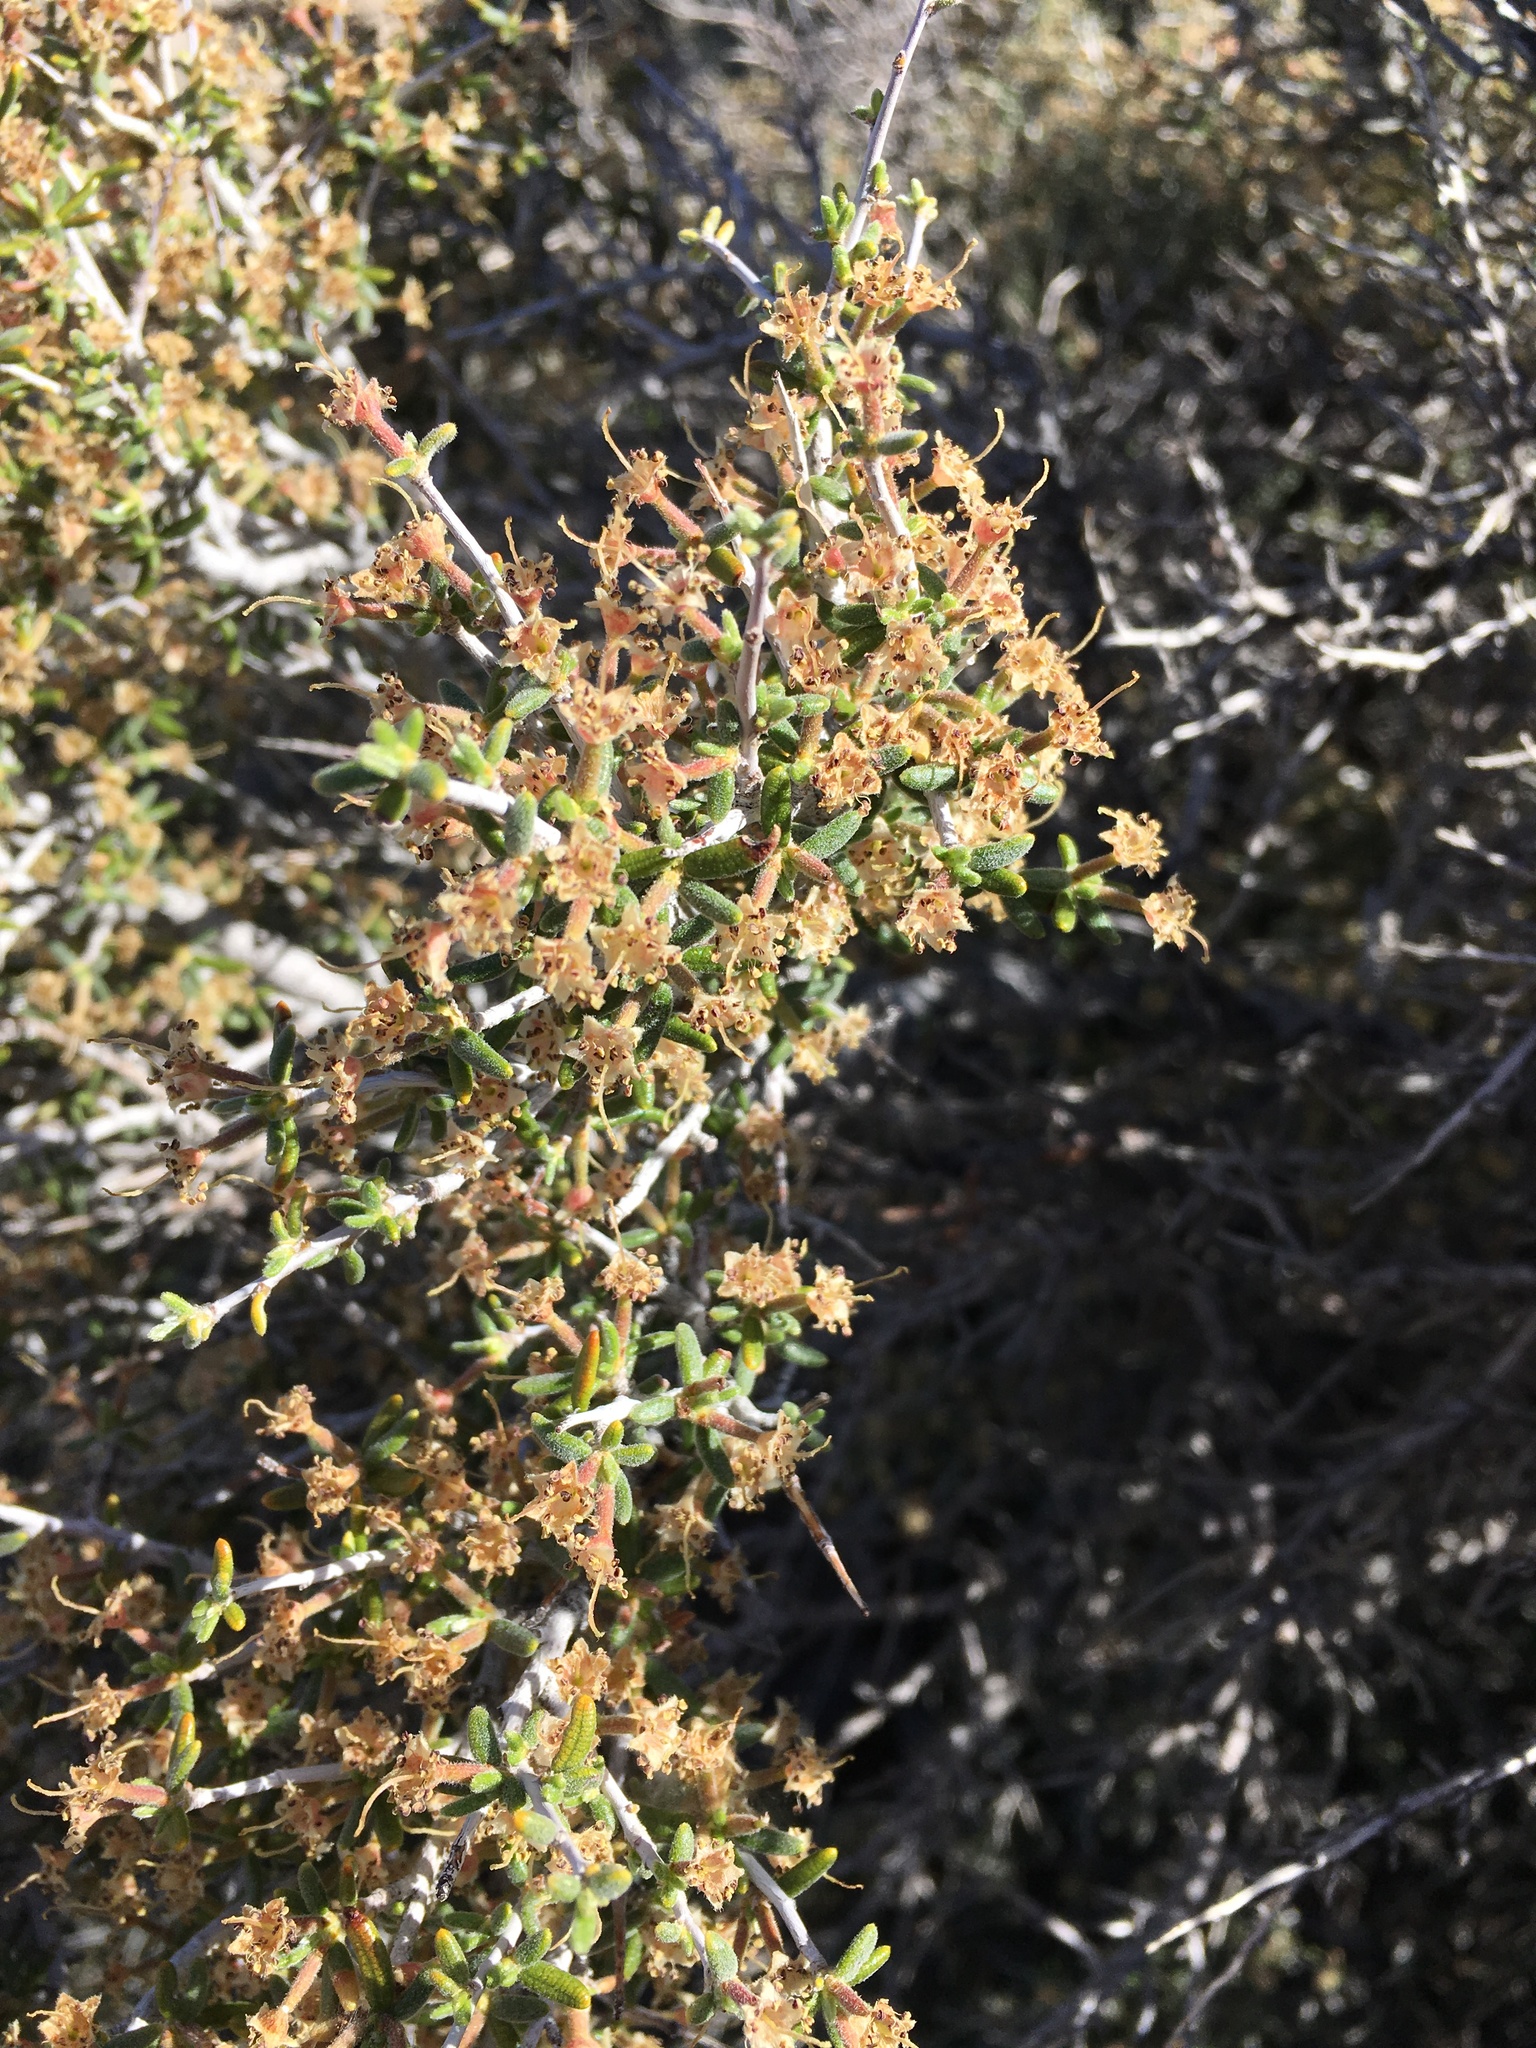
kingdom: Plantae
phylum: Tracheophyta
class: Magnoliopsida
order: Rosales
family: Rosaceae
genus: Cercocarpus
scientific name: Cercocarpus intricatus
